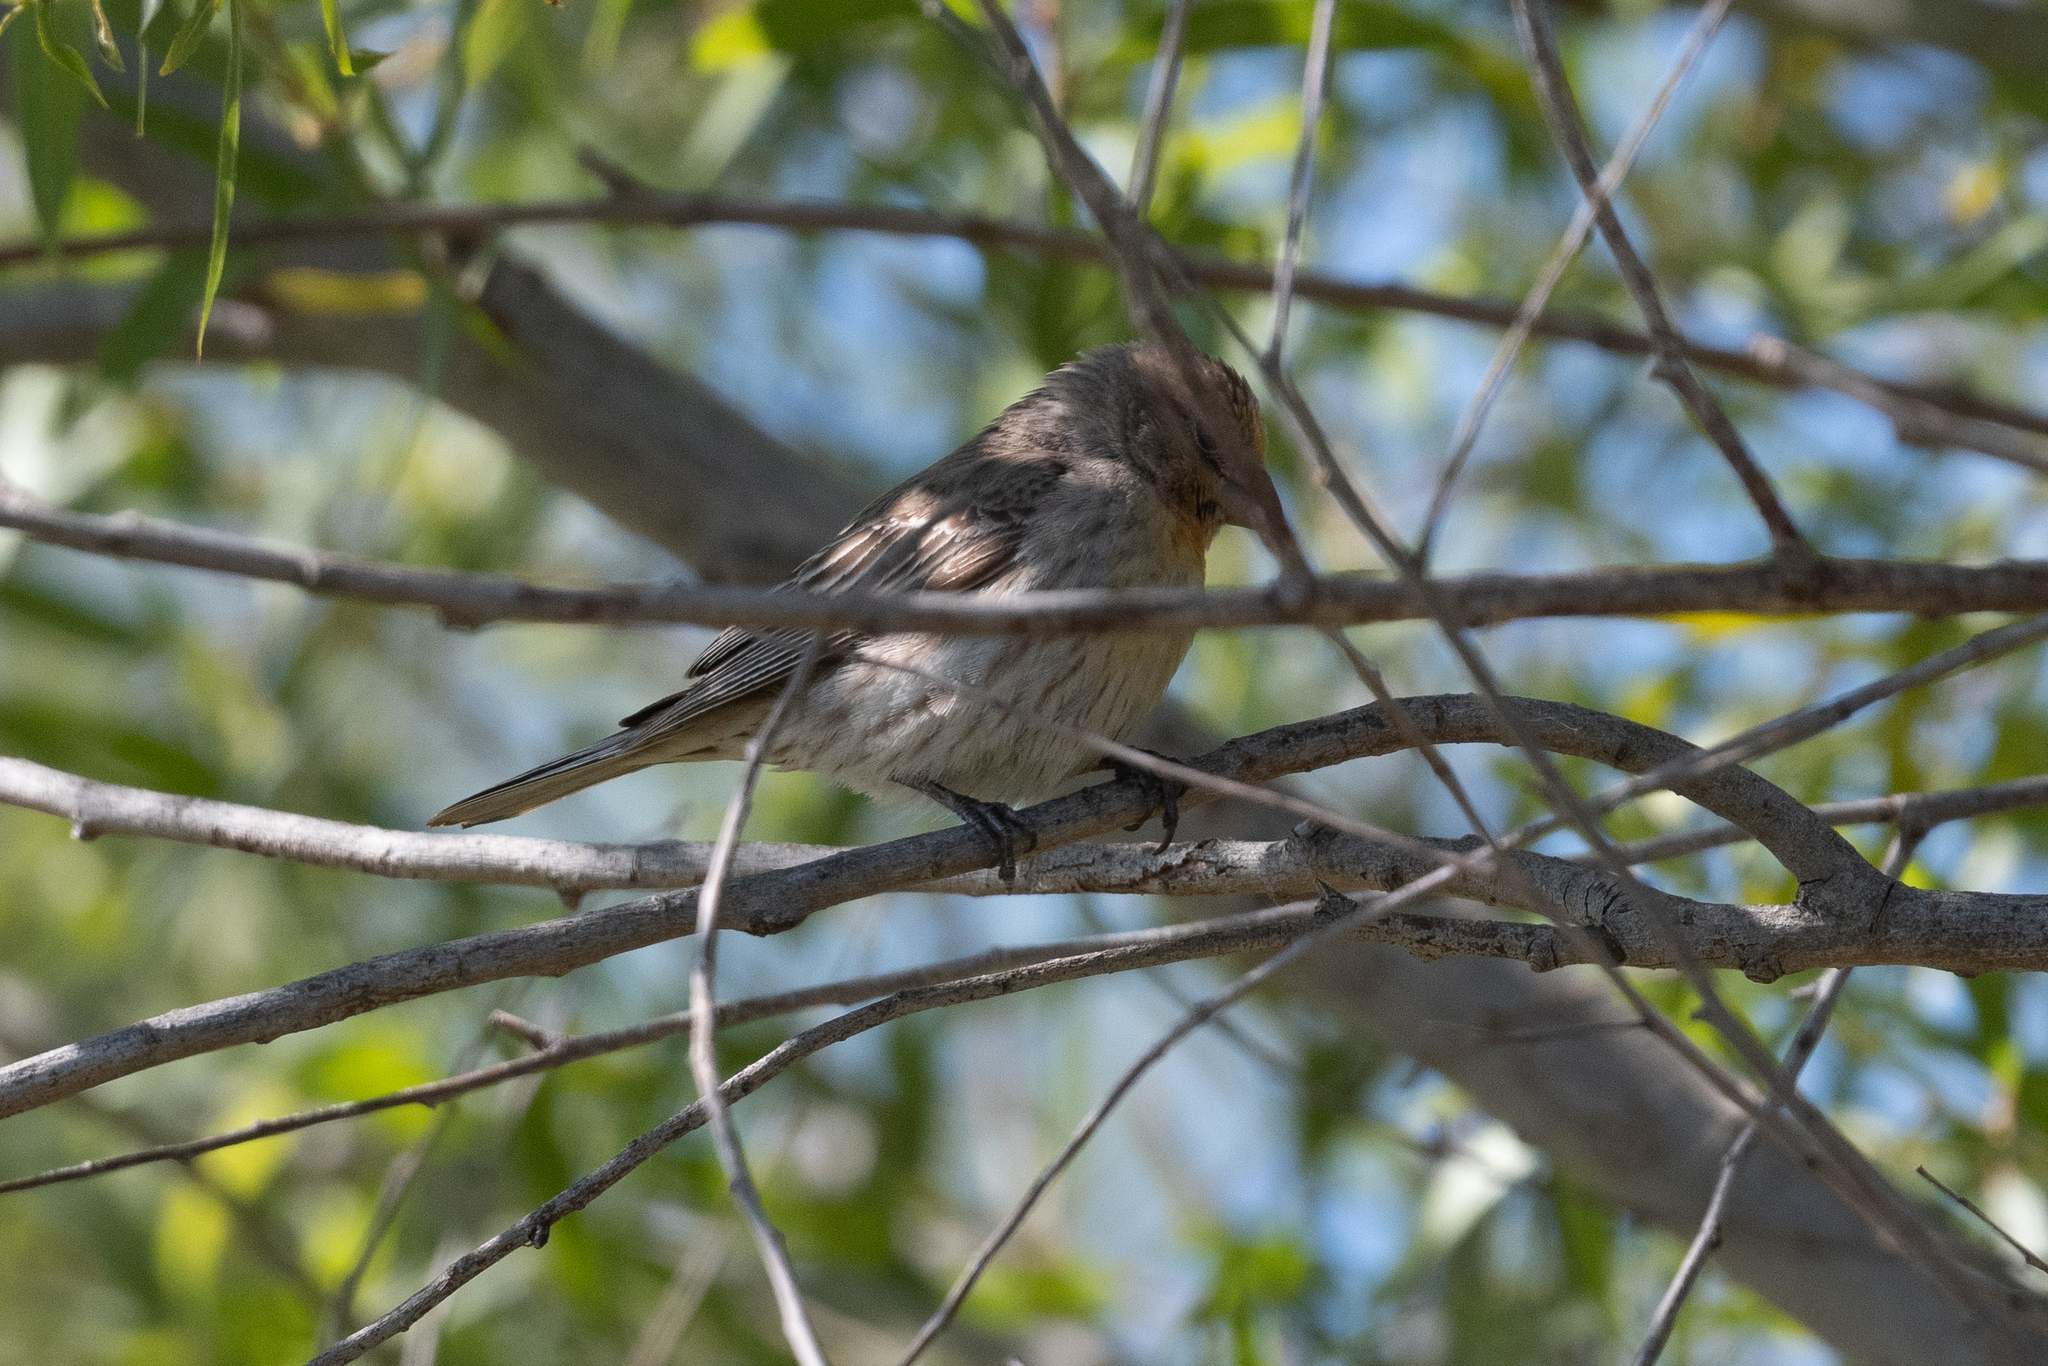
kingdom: Animalia
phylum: Chordata
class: Aves
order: Passeriformes
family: Fringillidae
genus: Haemorhous
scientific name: Haemorhous mexicanus
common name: House finch
